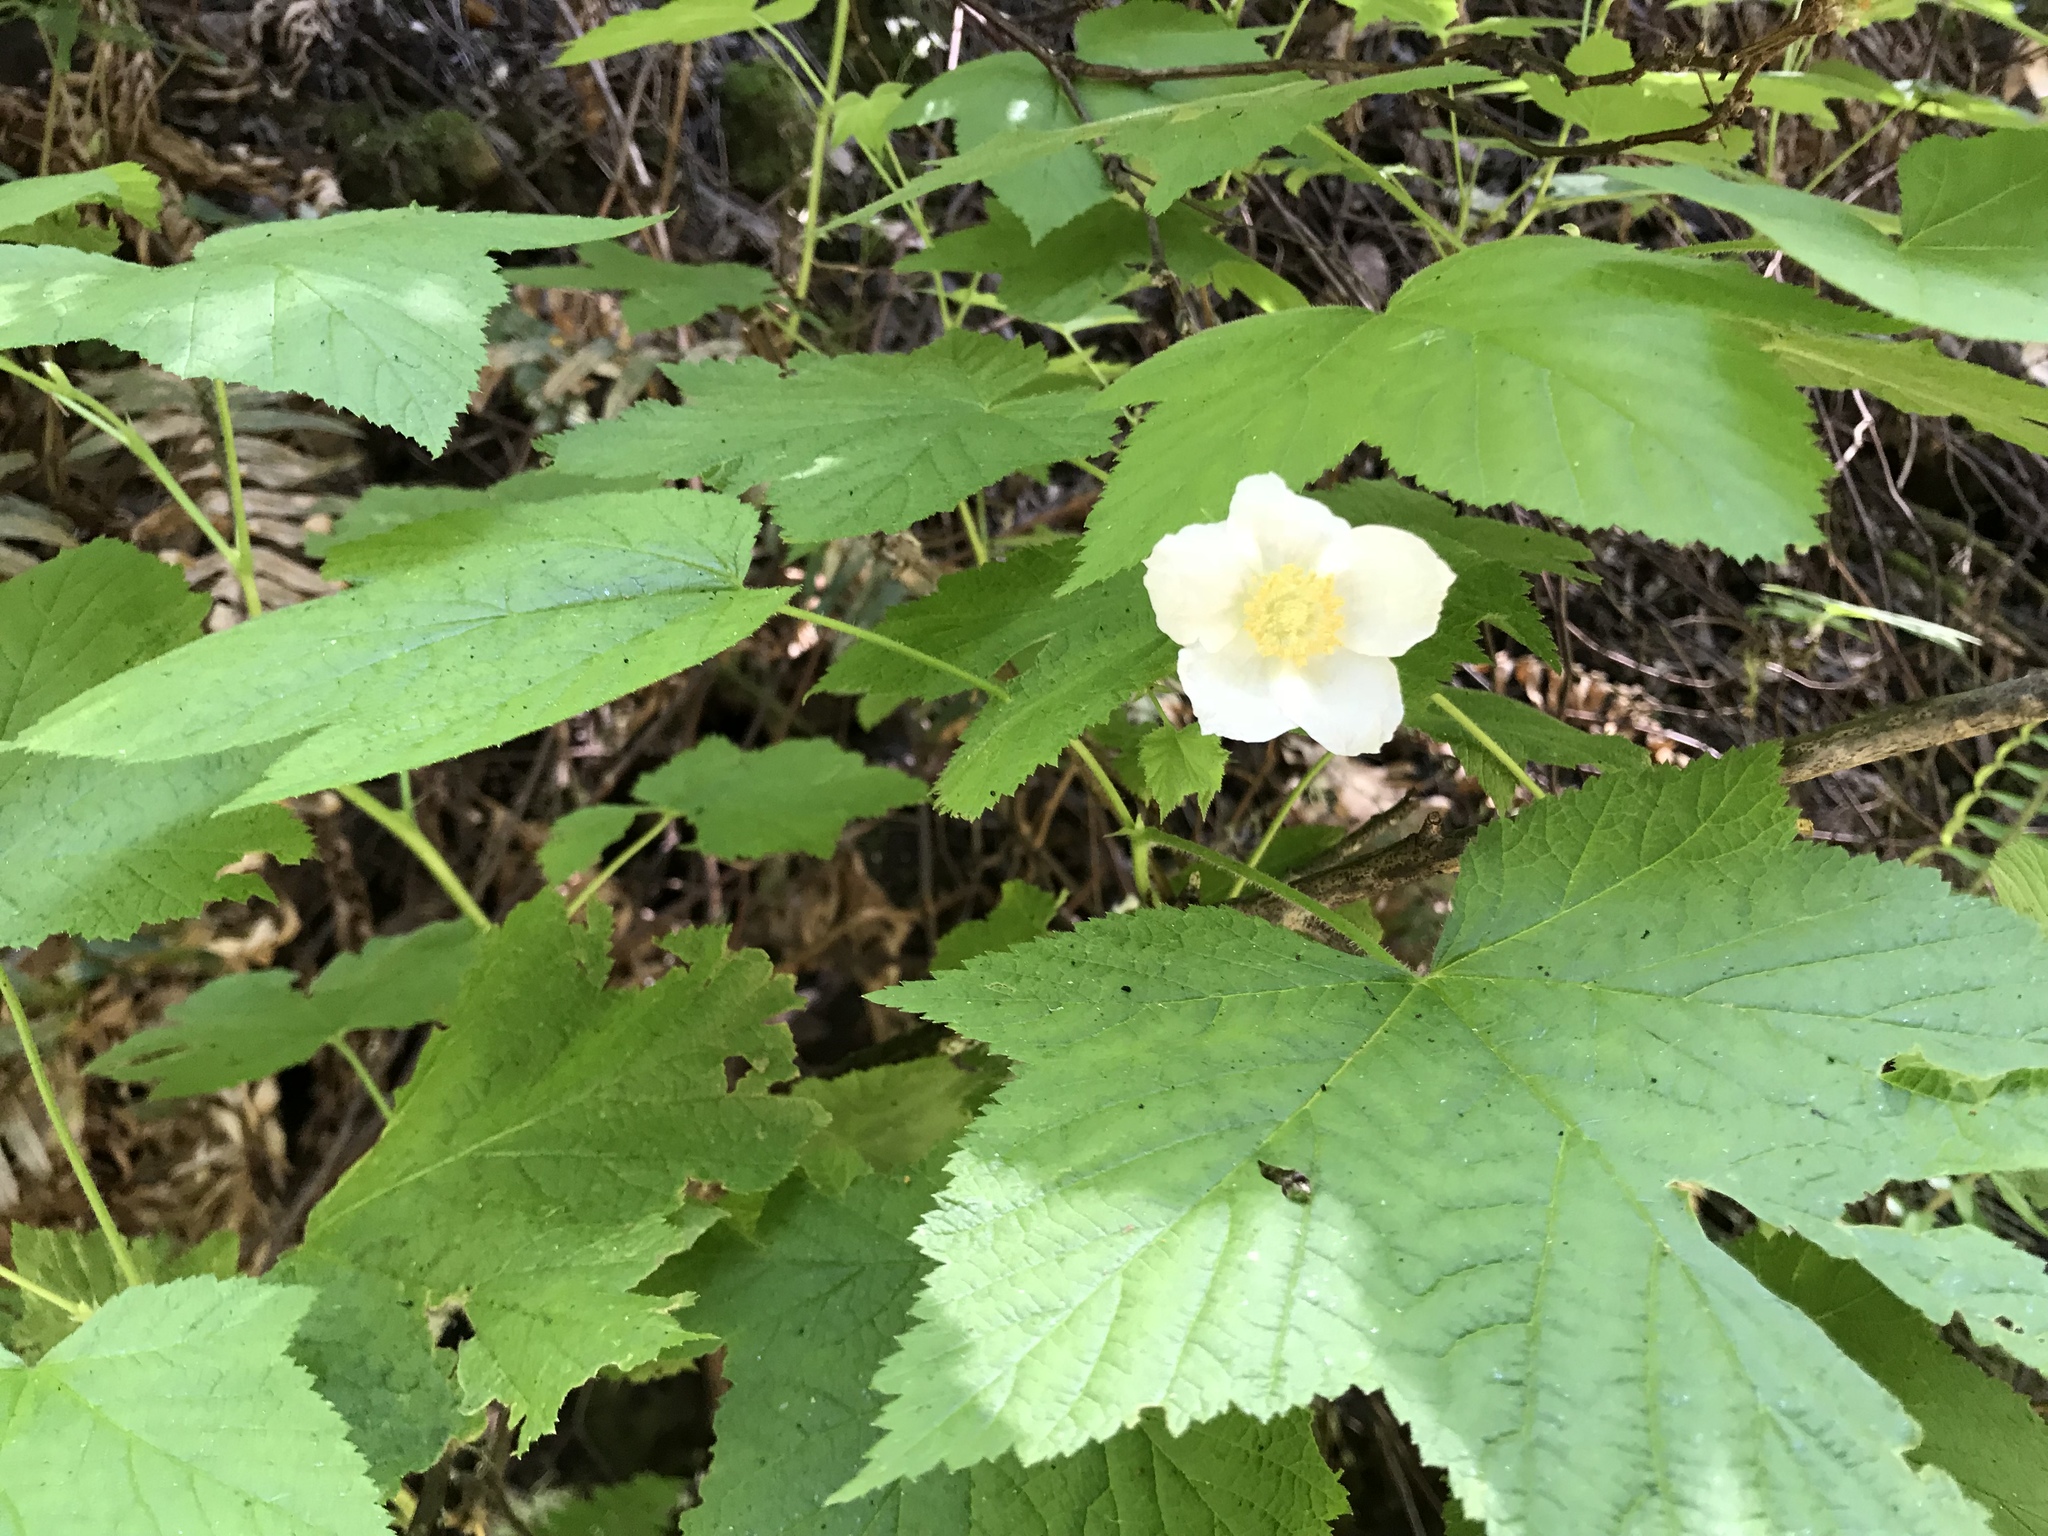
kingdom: Plantae
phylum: Tracheophyta
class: Magnoliopsida
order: Rosales
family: Rosaceae
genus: Rubus
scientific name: Rubus parviflorus
